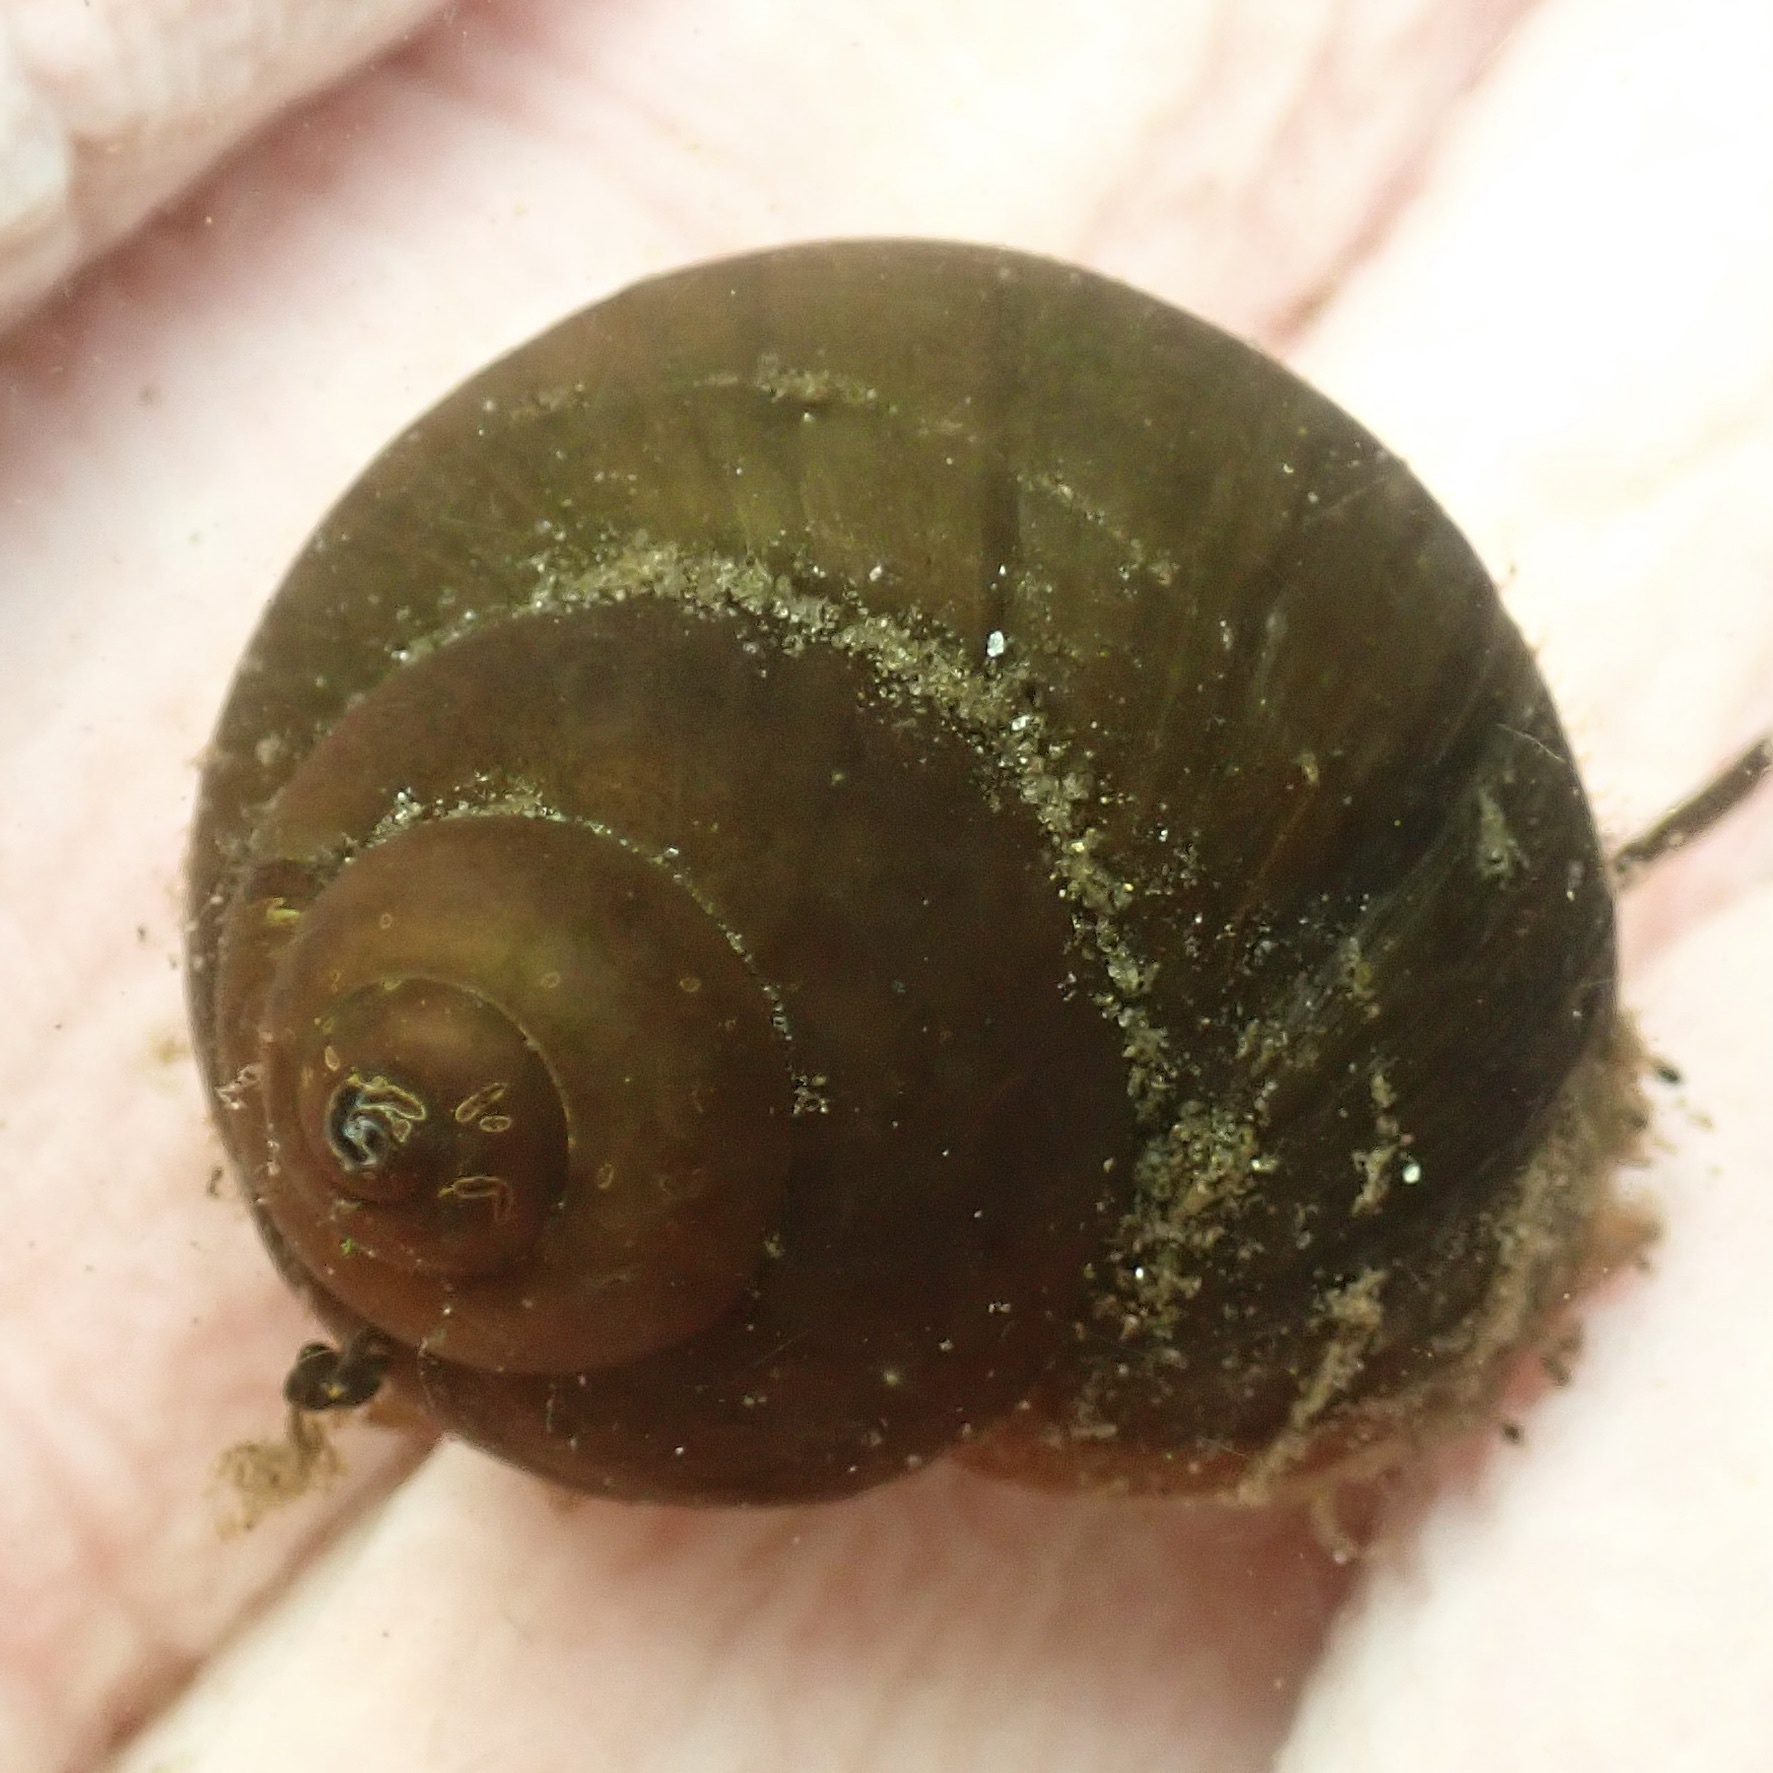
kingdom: Animalia
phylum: Mollusca
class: Gastropoda
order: Architaenioglossa
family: Viviparidae
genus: Cipangopaludina
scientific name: Cipangopaludina chinensis
